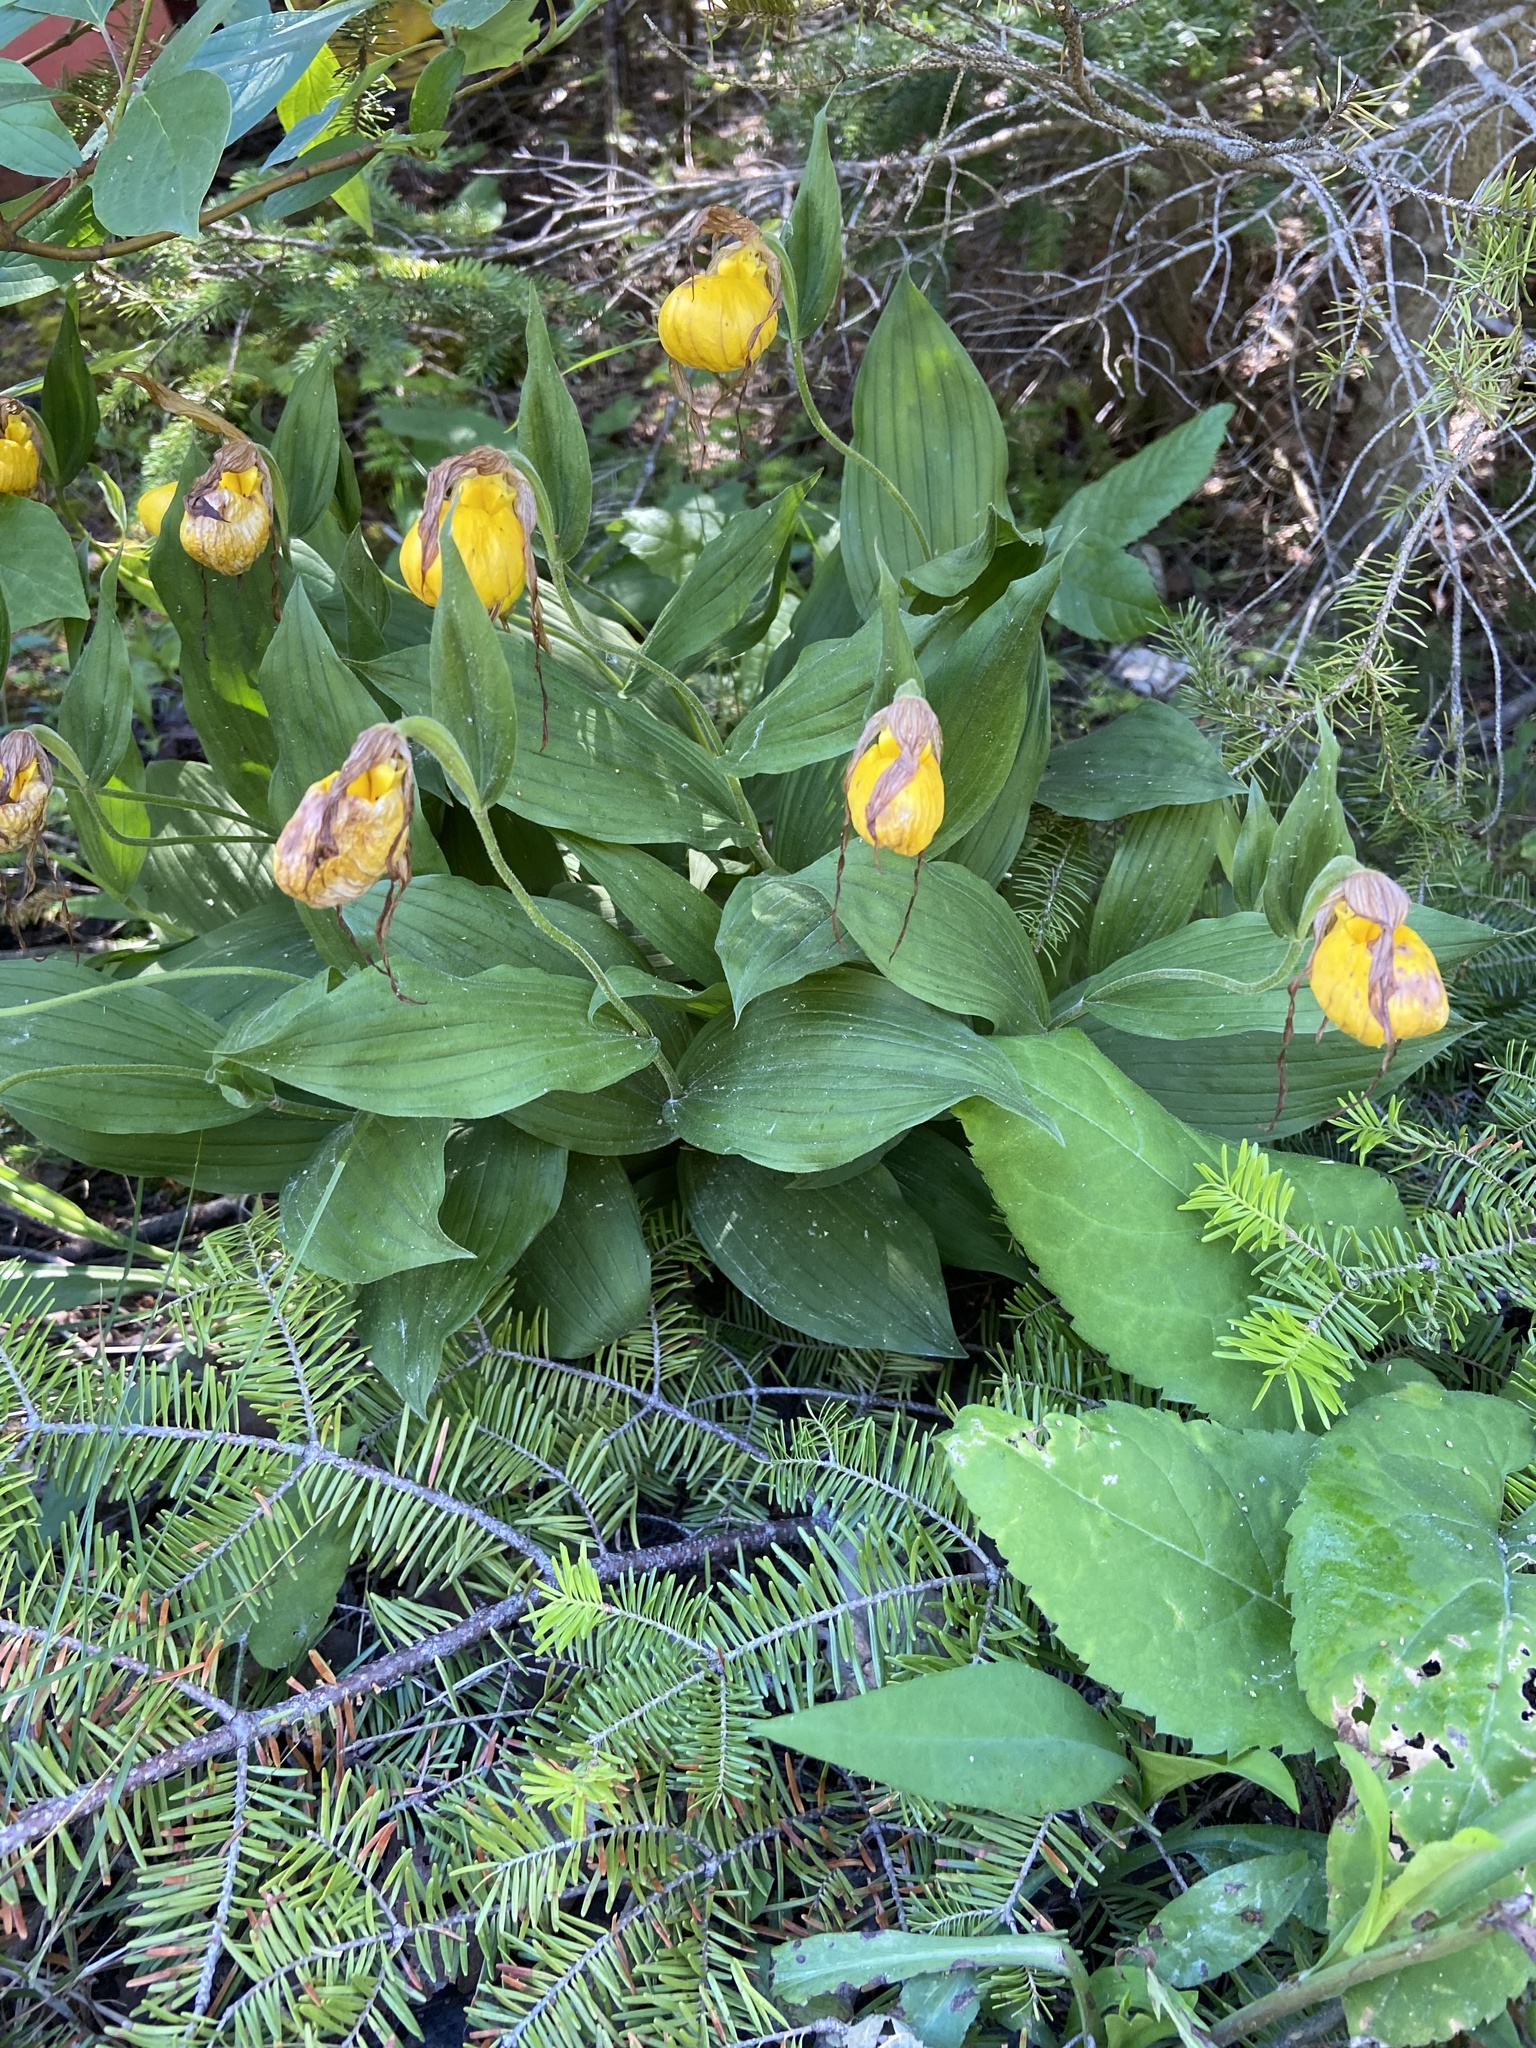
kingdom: Plantae
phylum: Tracheophyta
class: Liliopsida
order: Asparagales
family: Orchidaceae
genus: Cypripedium
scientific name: Cypripedium parviflorum
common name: American yellow lady's-slipper
